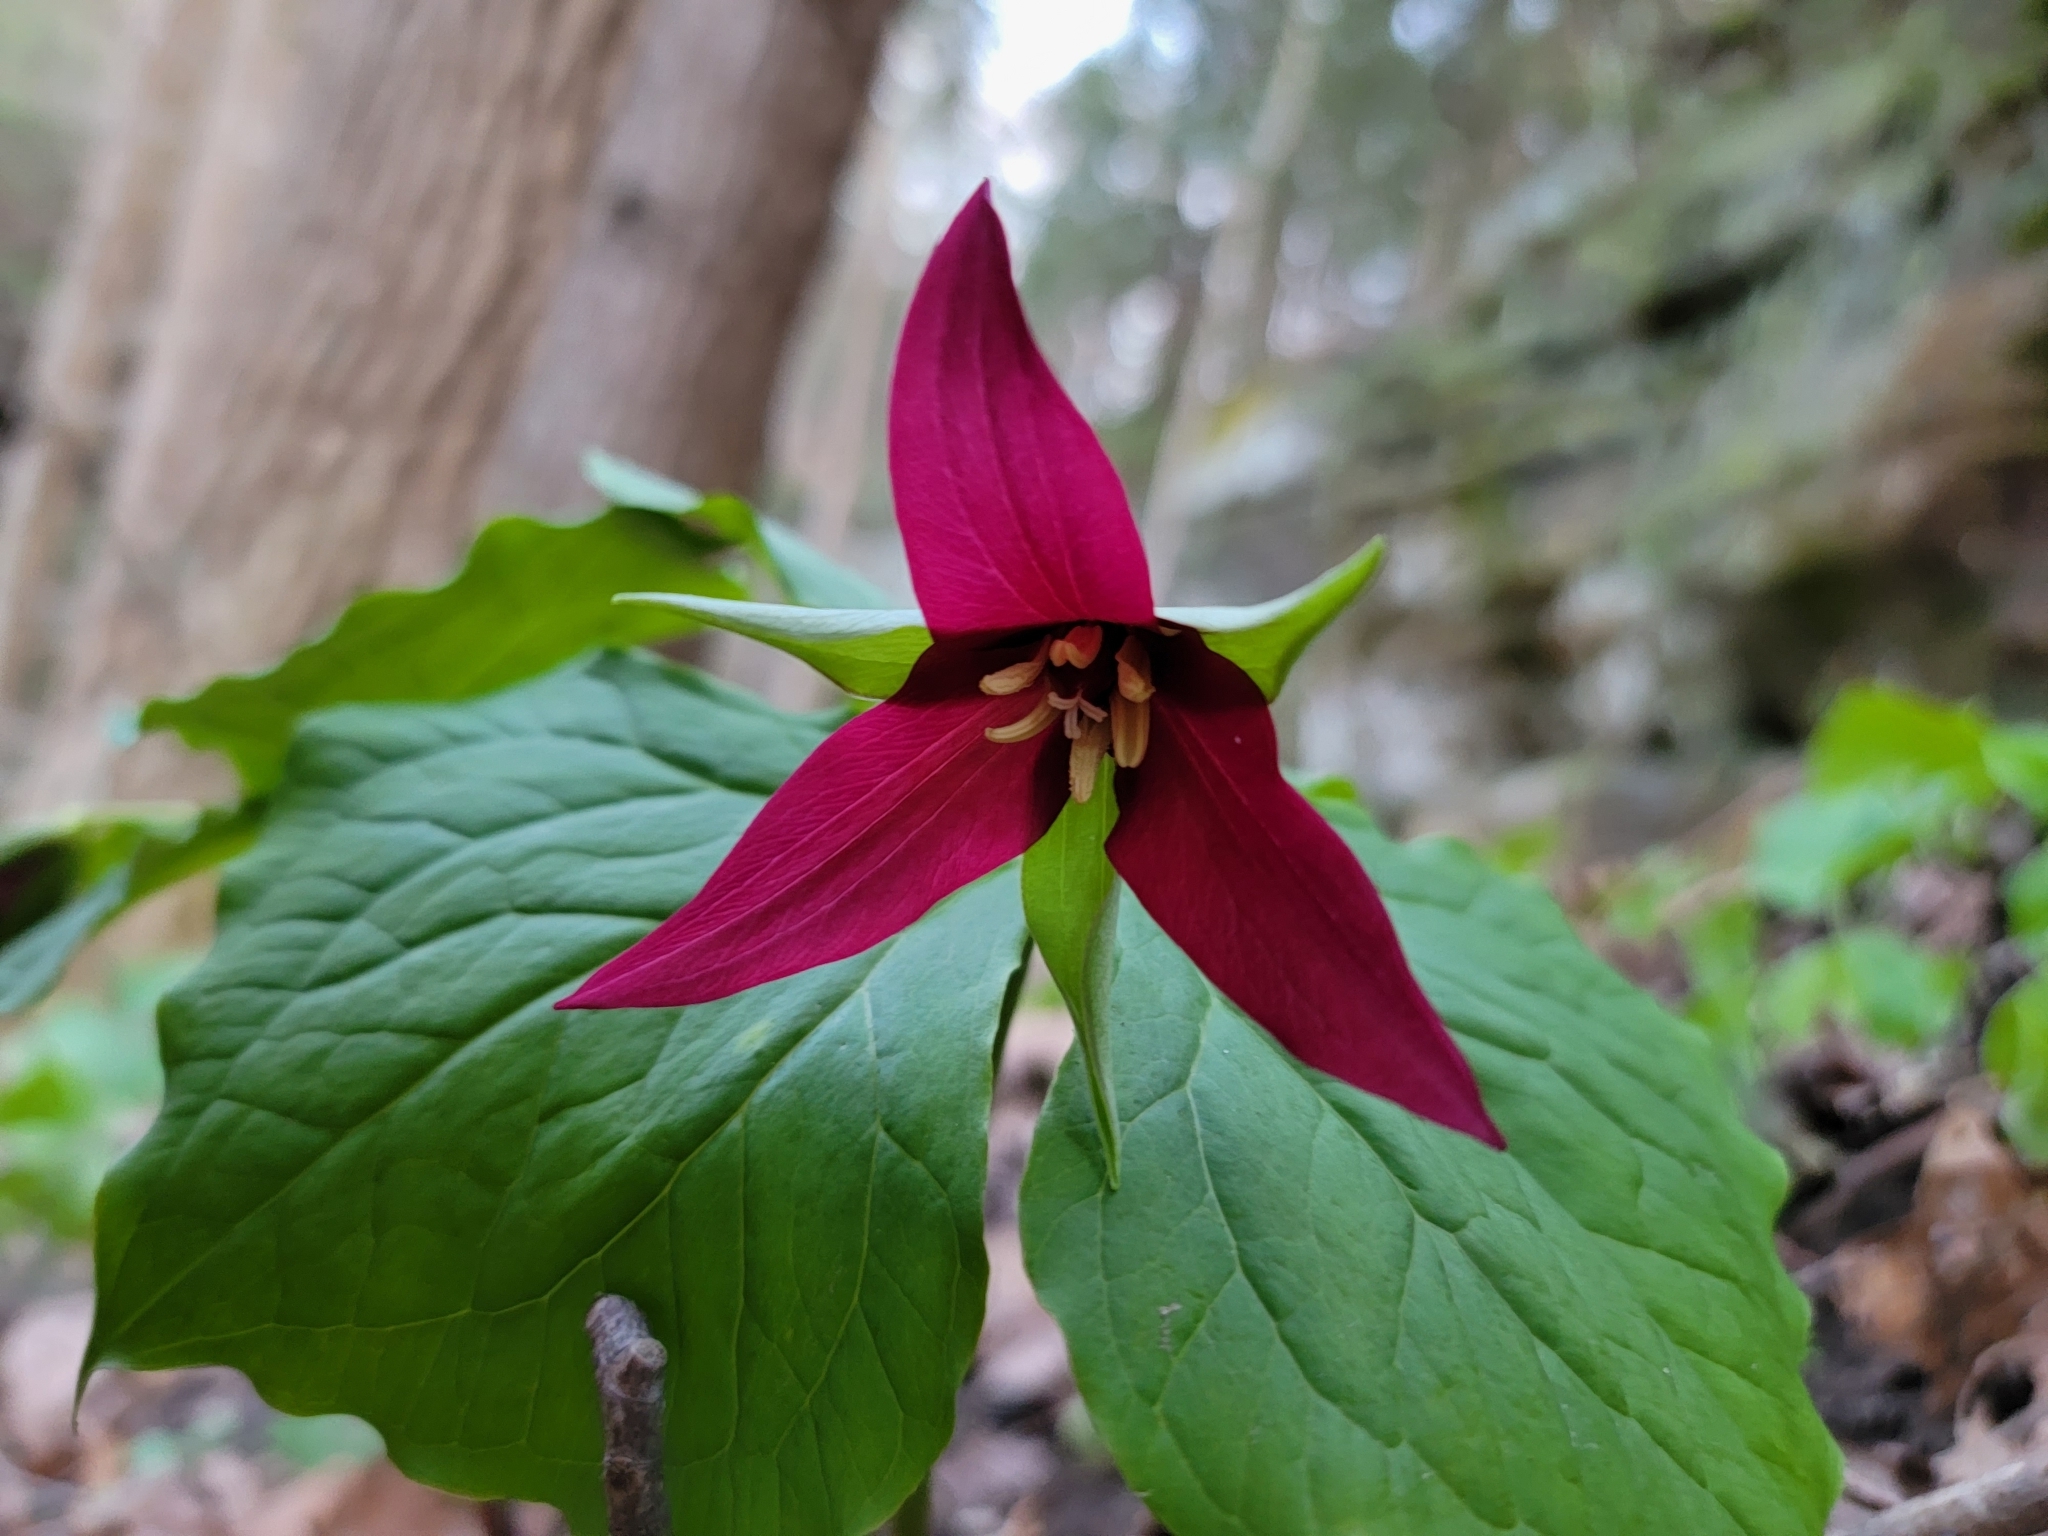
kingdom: Plantae
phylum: Tracheophyta
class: Liliopsida
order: Liliales
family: Melanthiaceae
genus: Trillium
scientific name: Trillium erectum
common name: Purple trillium
